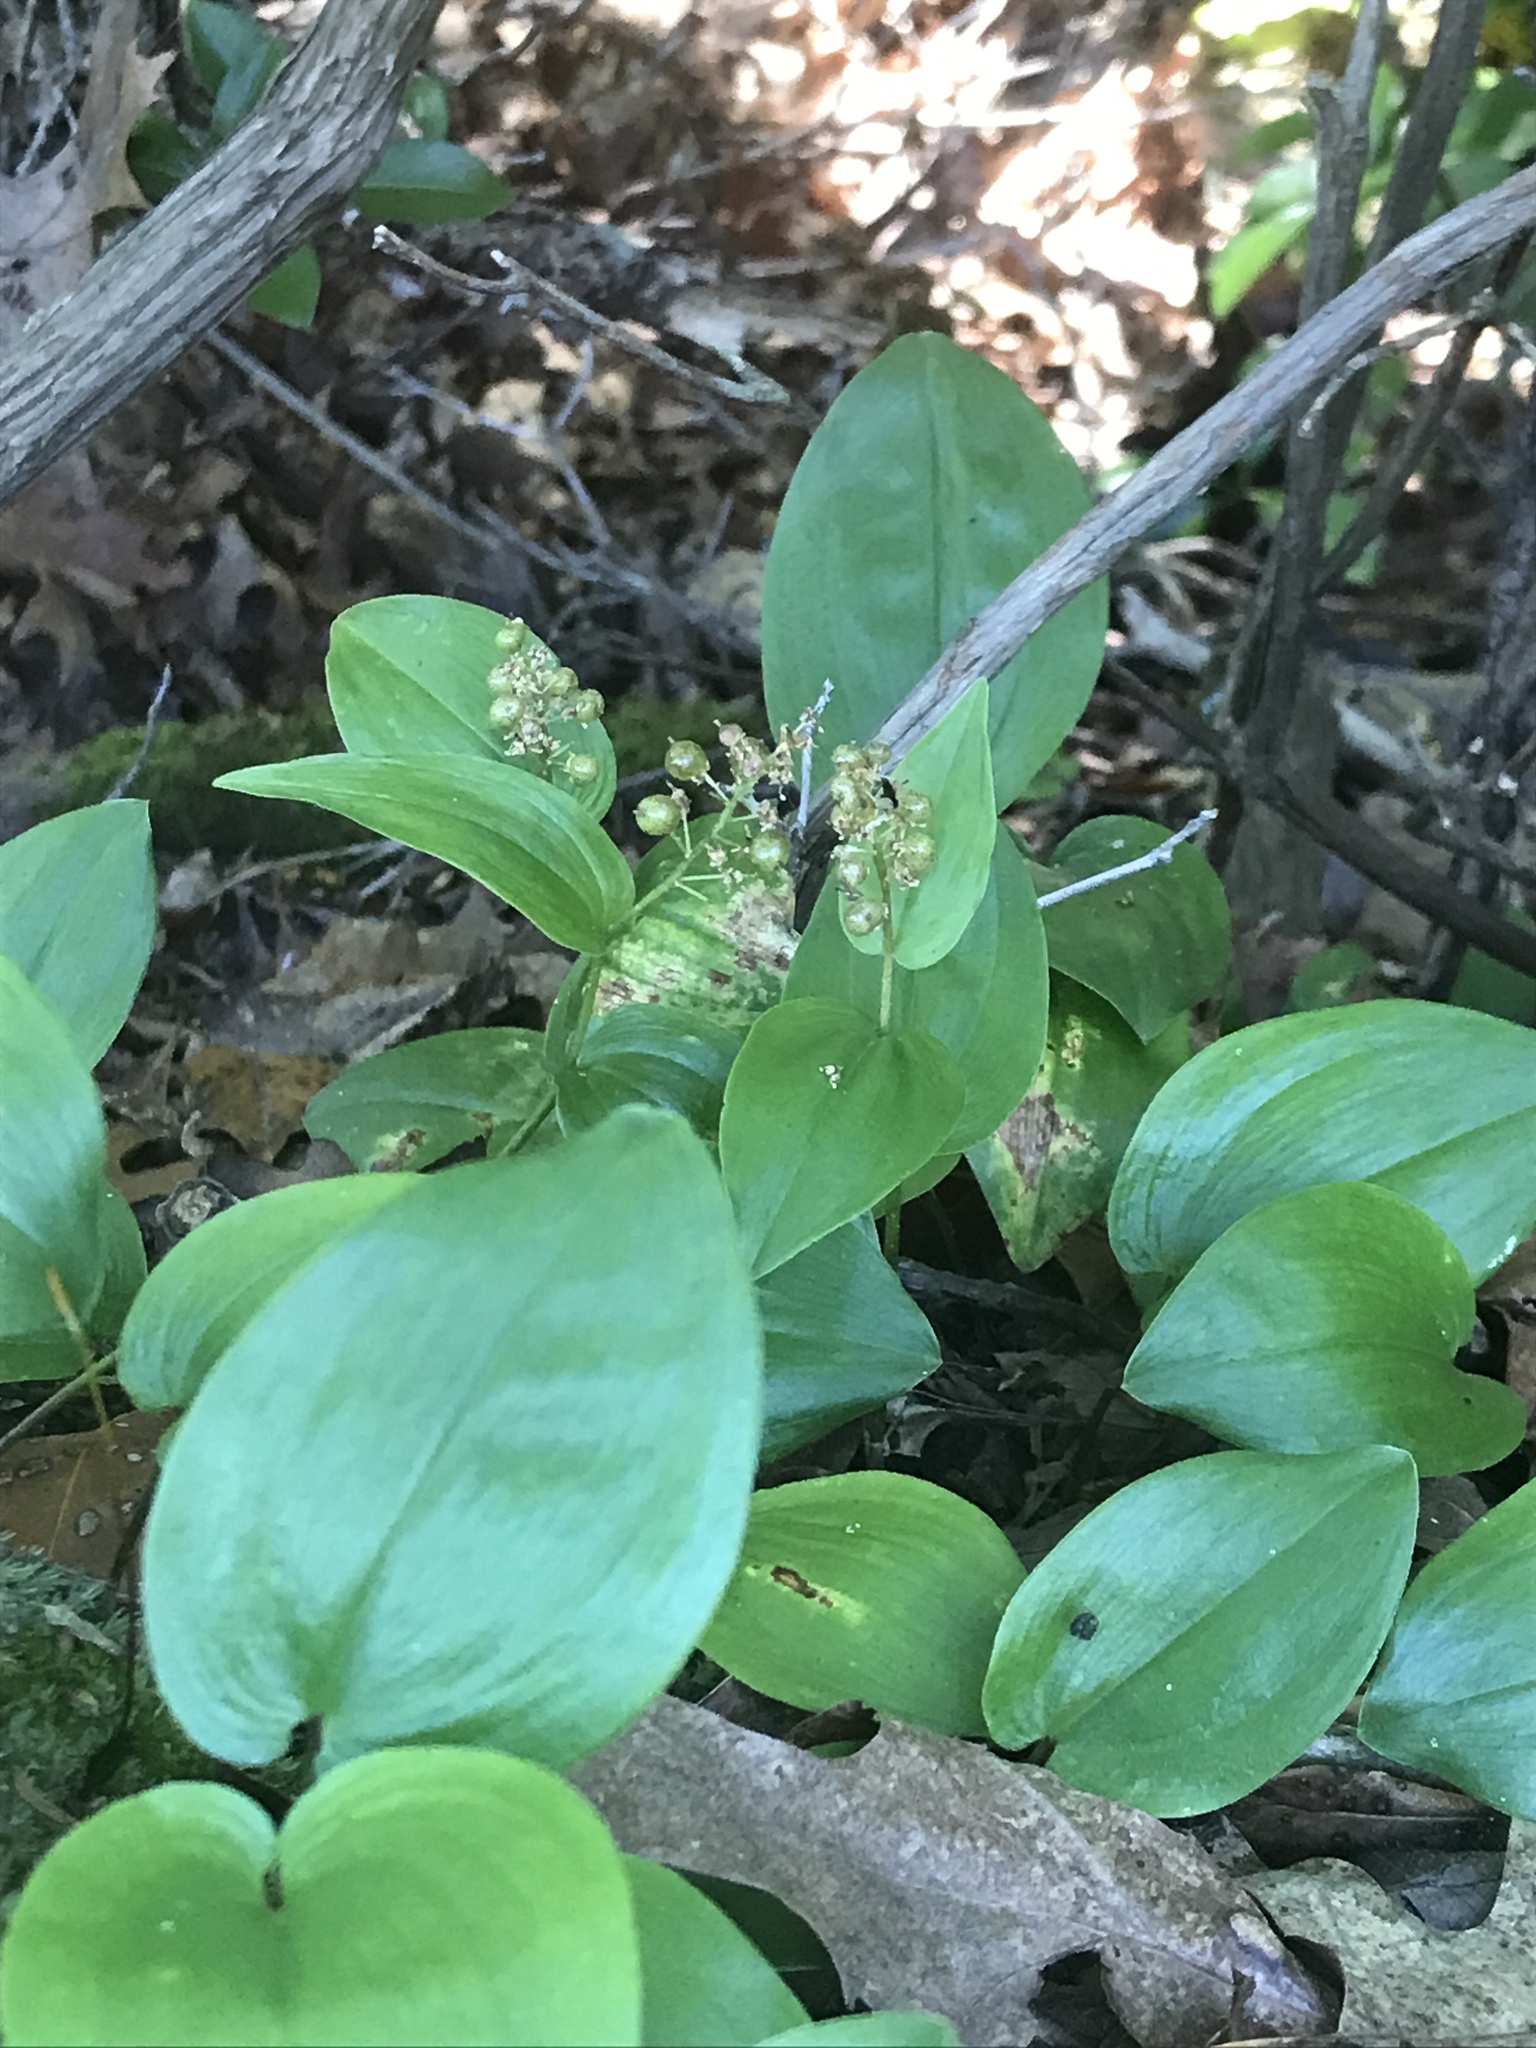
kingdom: Plantae
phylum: Tracheophyta
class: Liliopsida
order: Asparagales
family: Asparagaceae
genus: Maianthemum
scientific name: Maianthemum canadense
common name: False lily-of-the-valley
